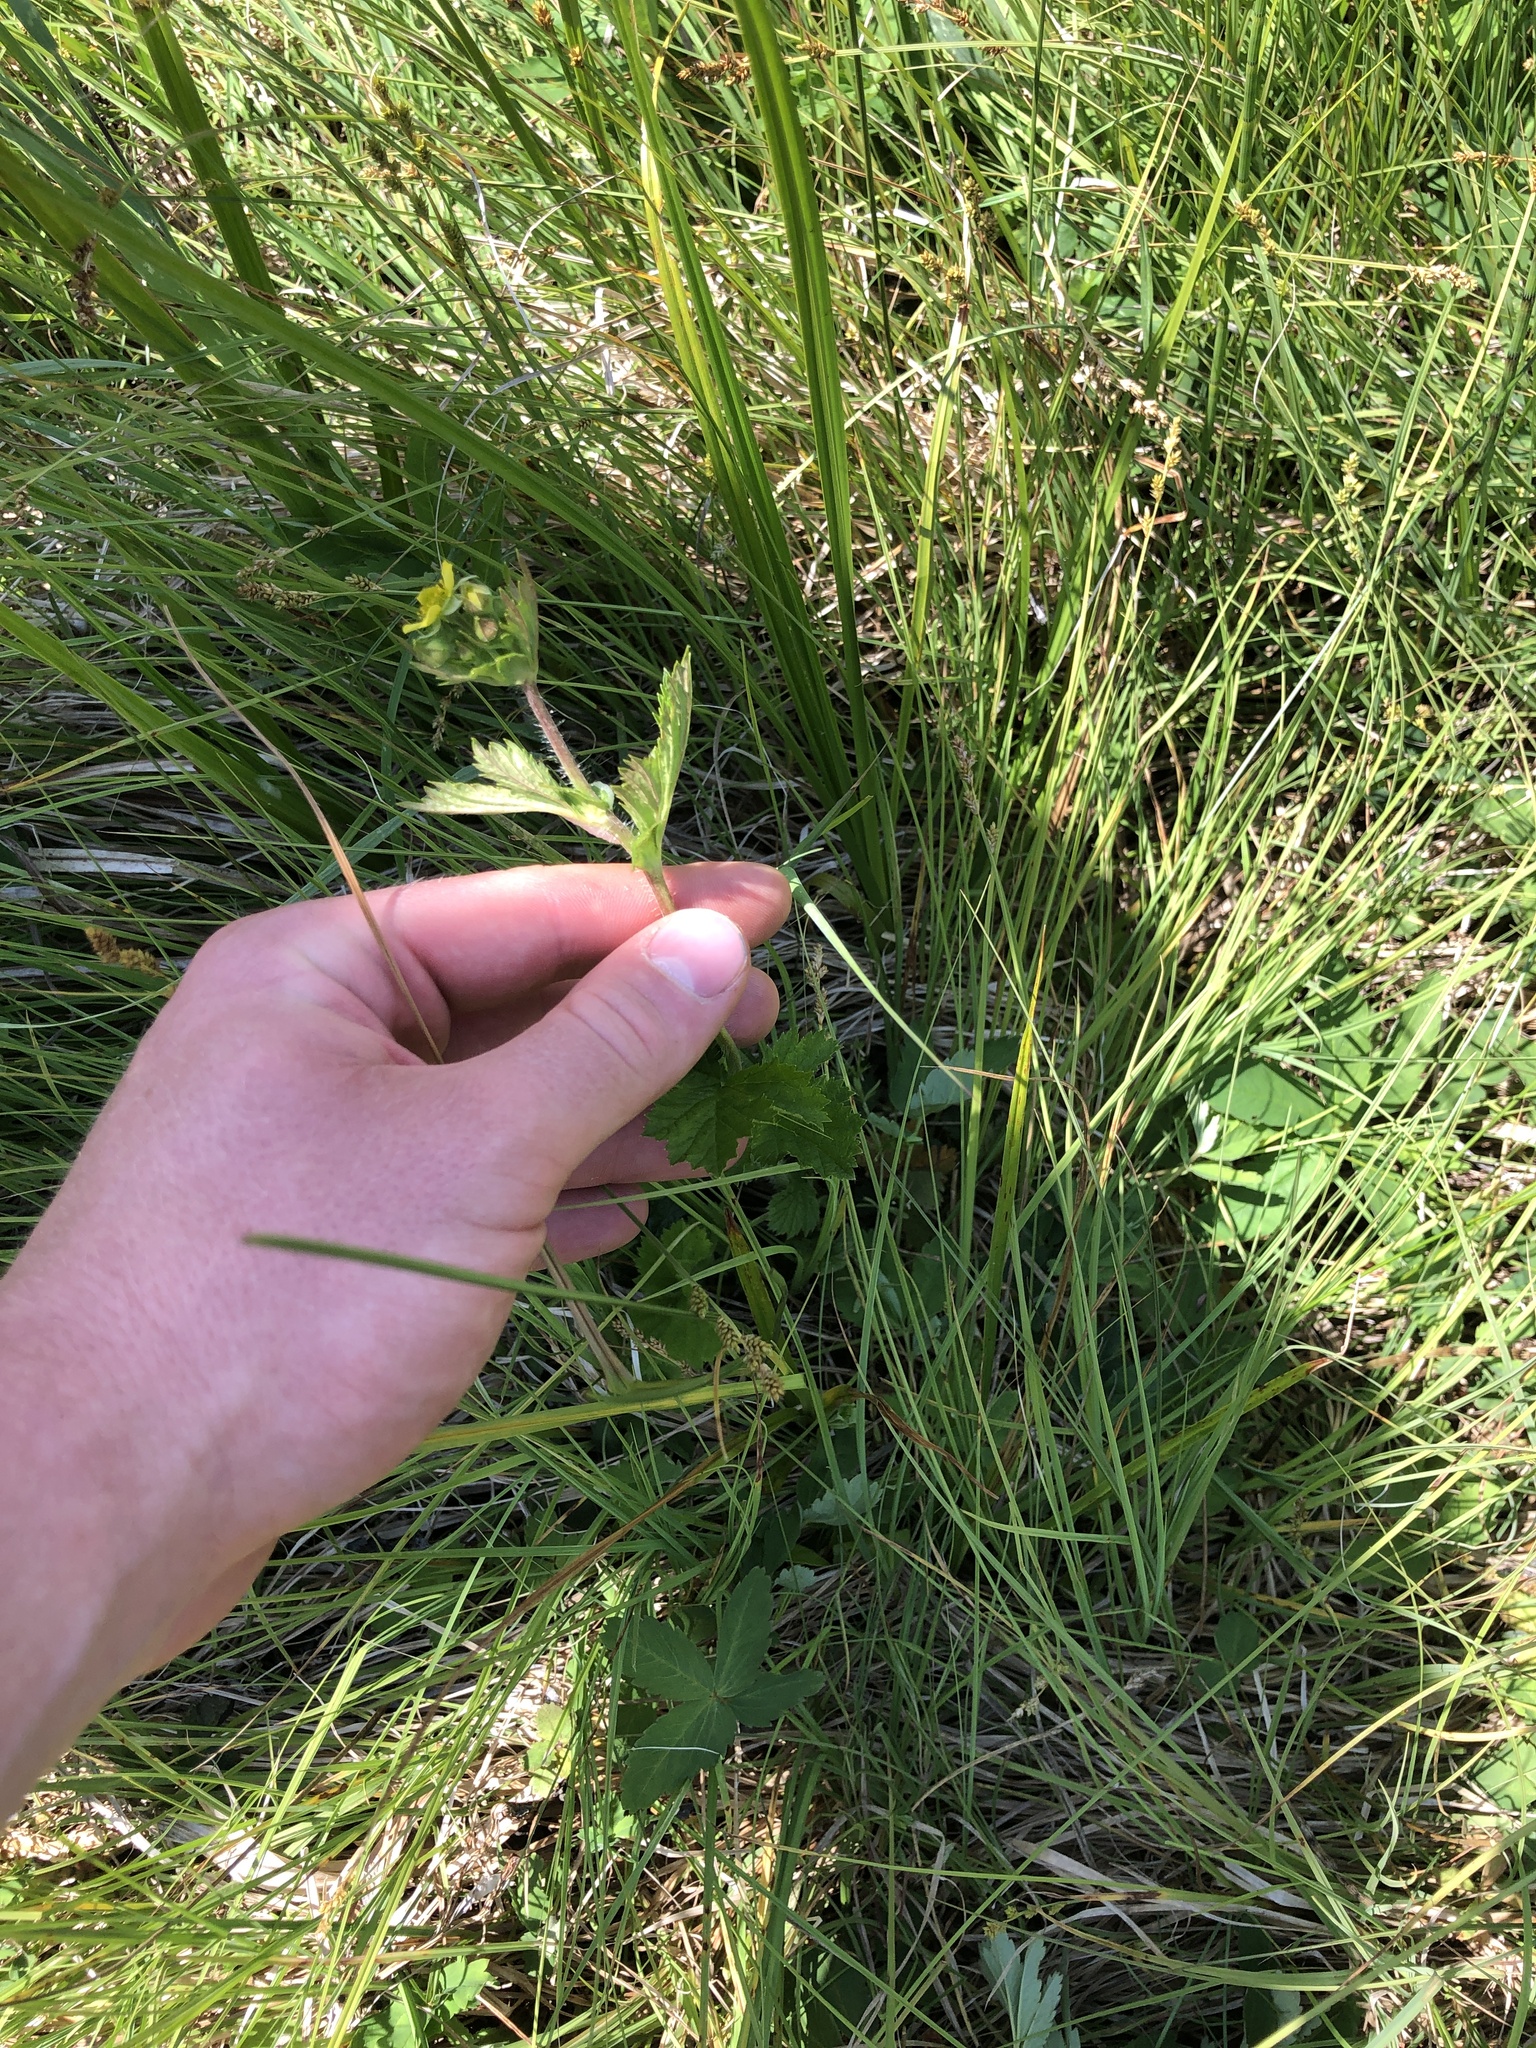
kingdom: Plantae
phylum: Tracheophyta
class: Magnoliopsida
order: Rosales
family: Rosaceae
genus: Geum
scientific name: Geum macrophyllum
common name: Large-leaved avens
